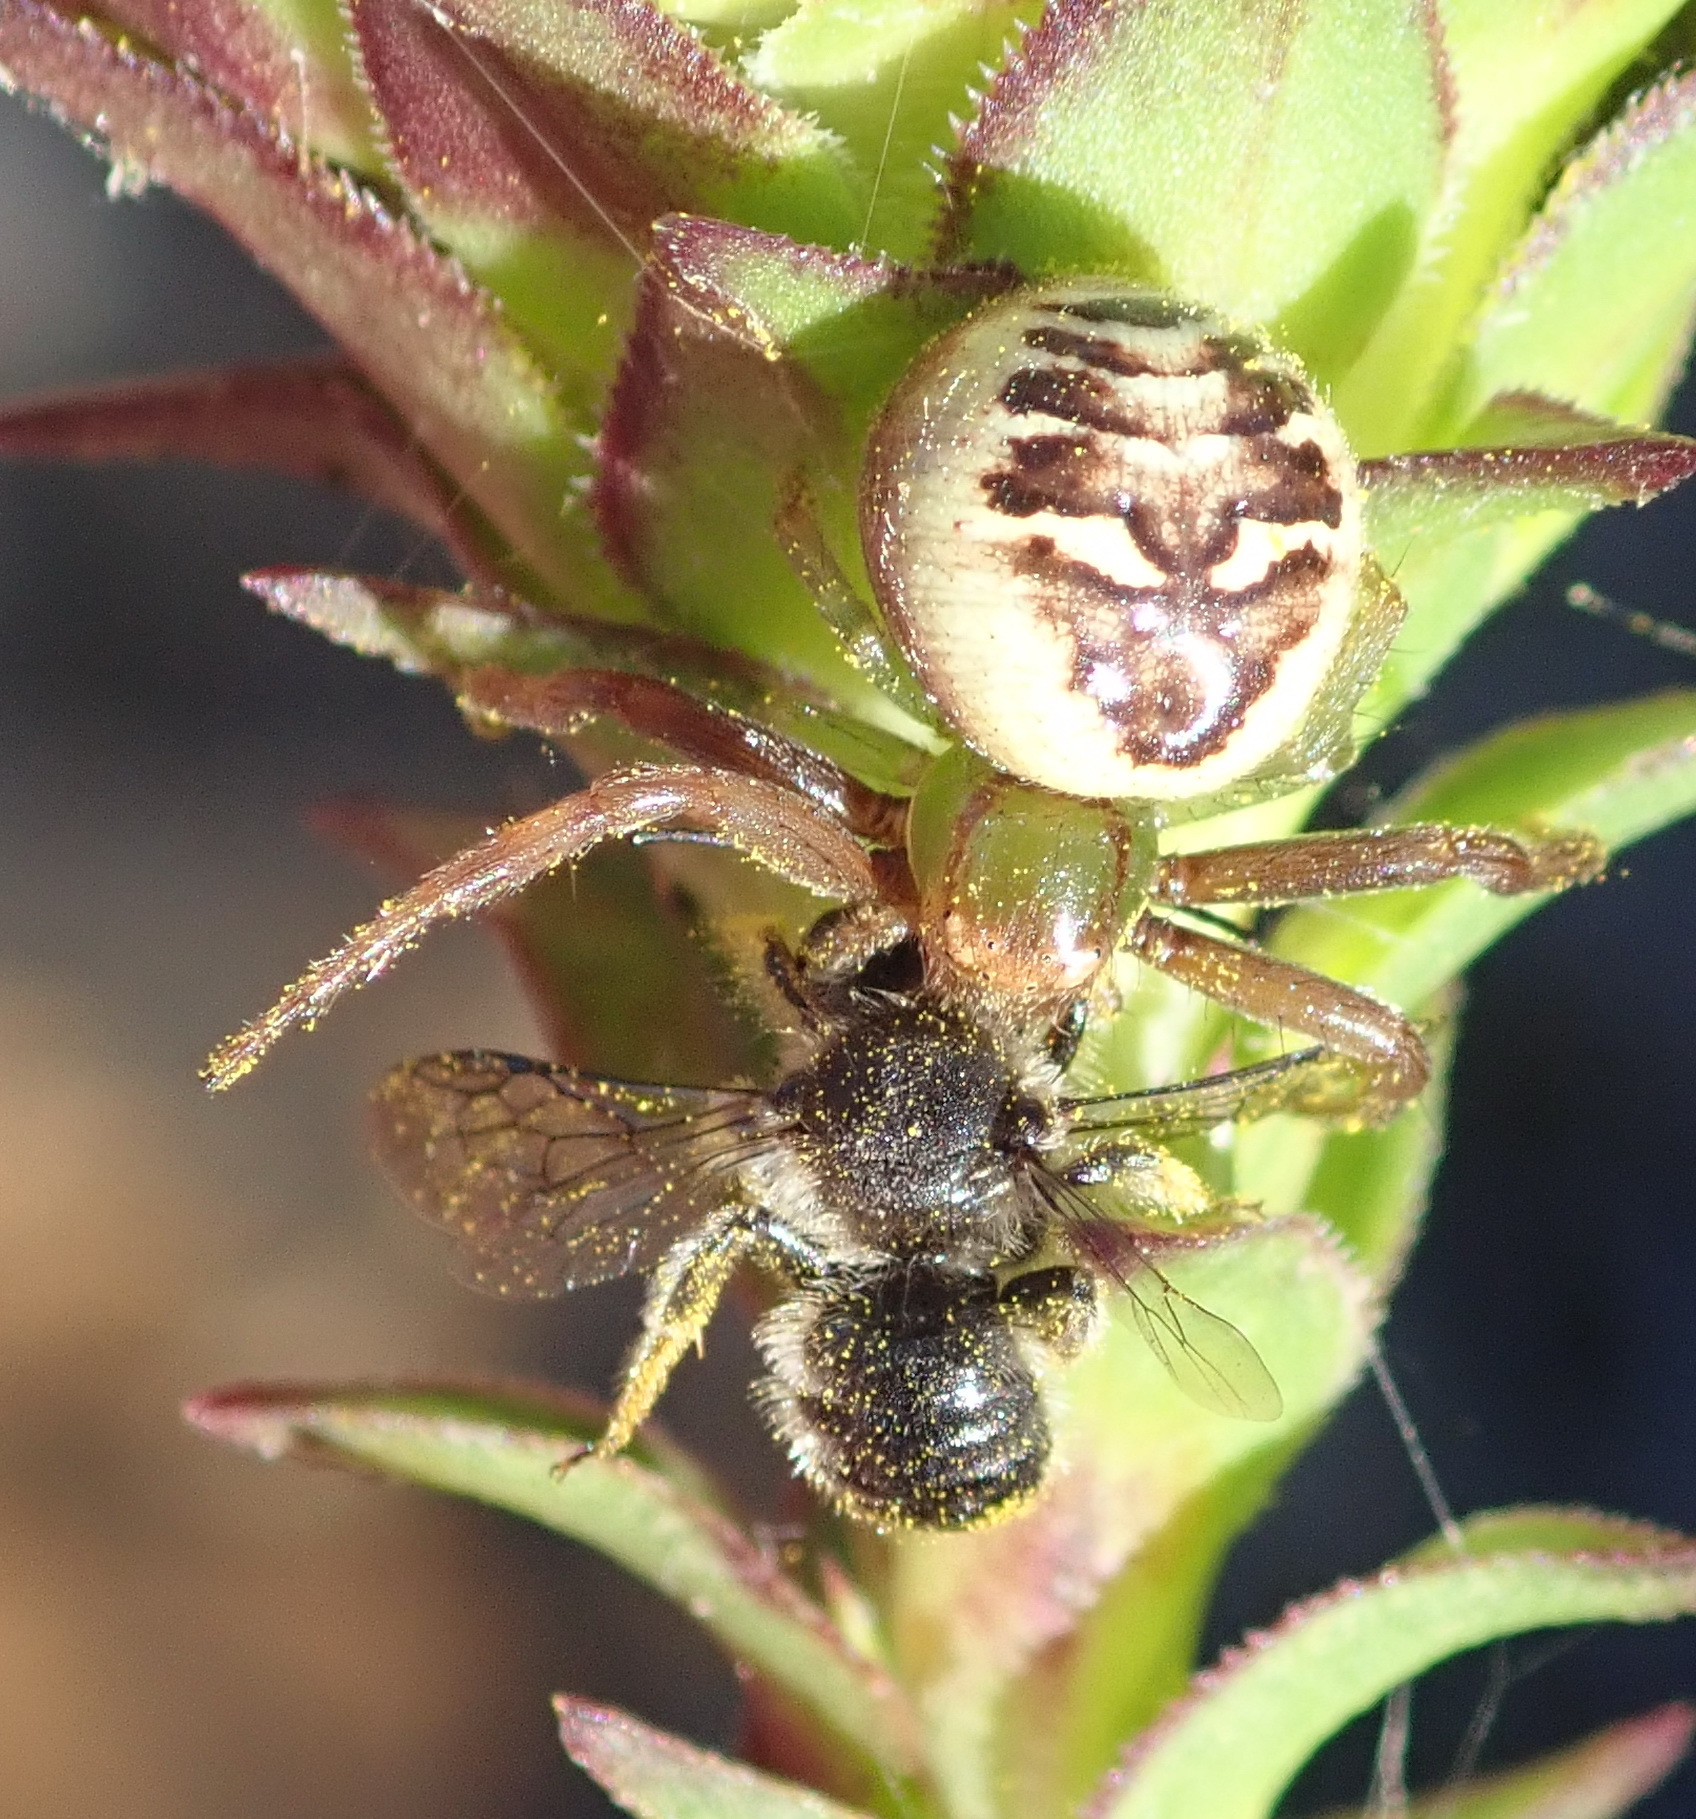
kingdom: Animalia
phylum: Arthropoda
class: Arachnida
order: Araneae
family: Thomisidae
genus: Synema
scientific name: Synema imitatrix
